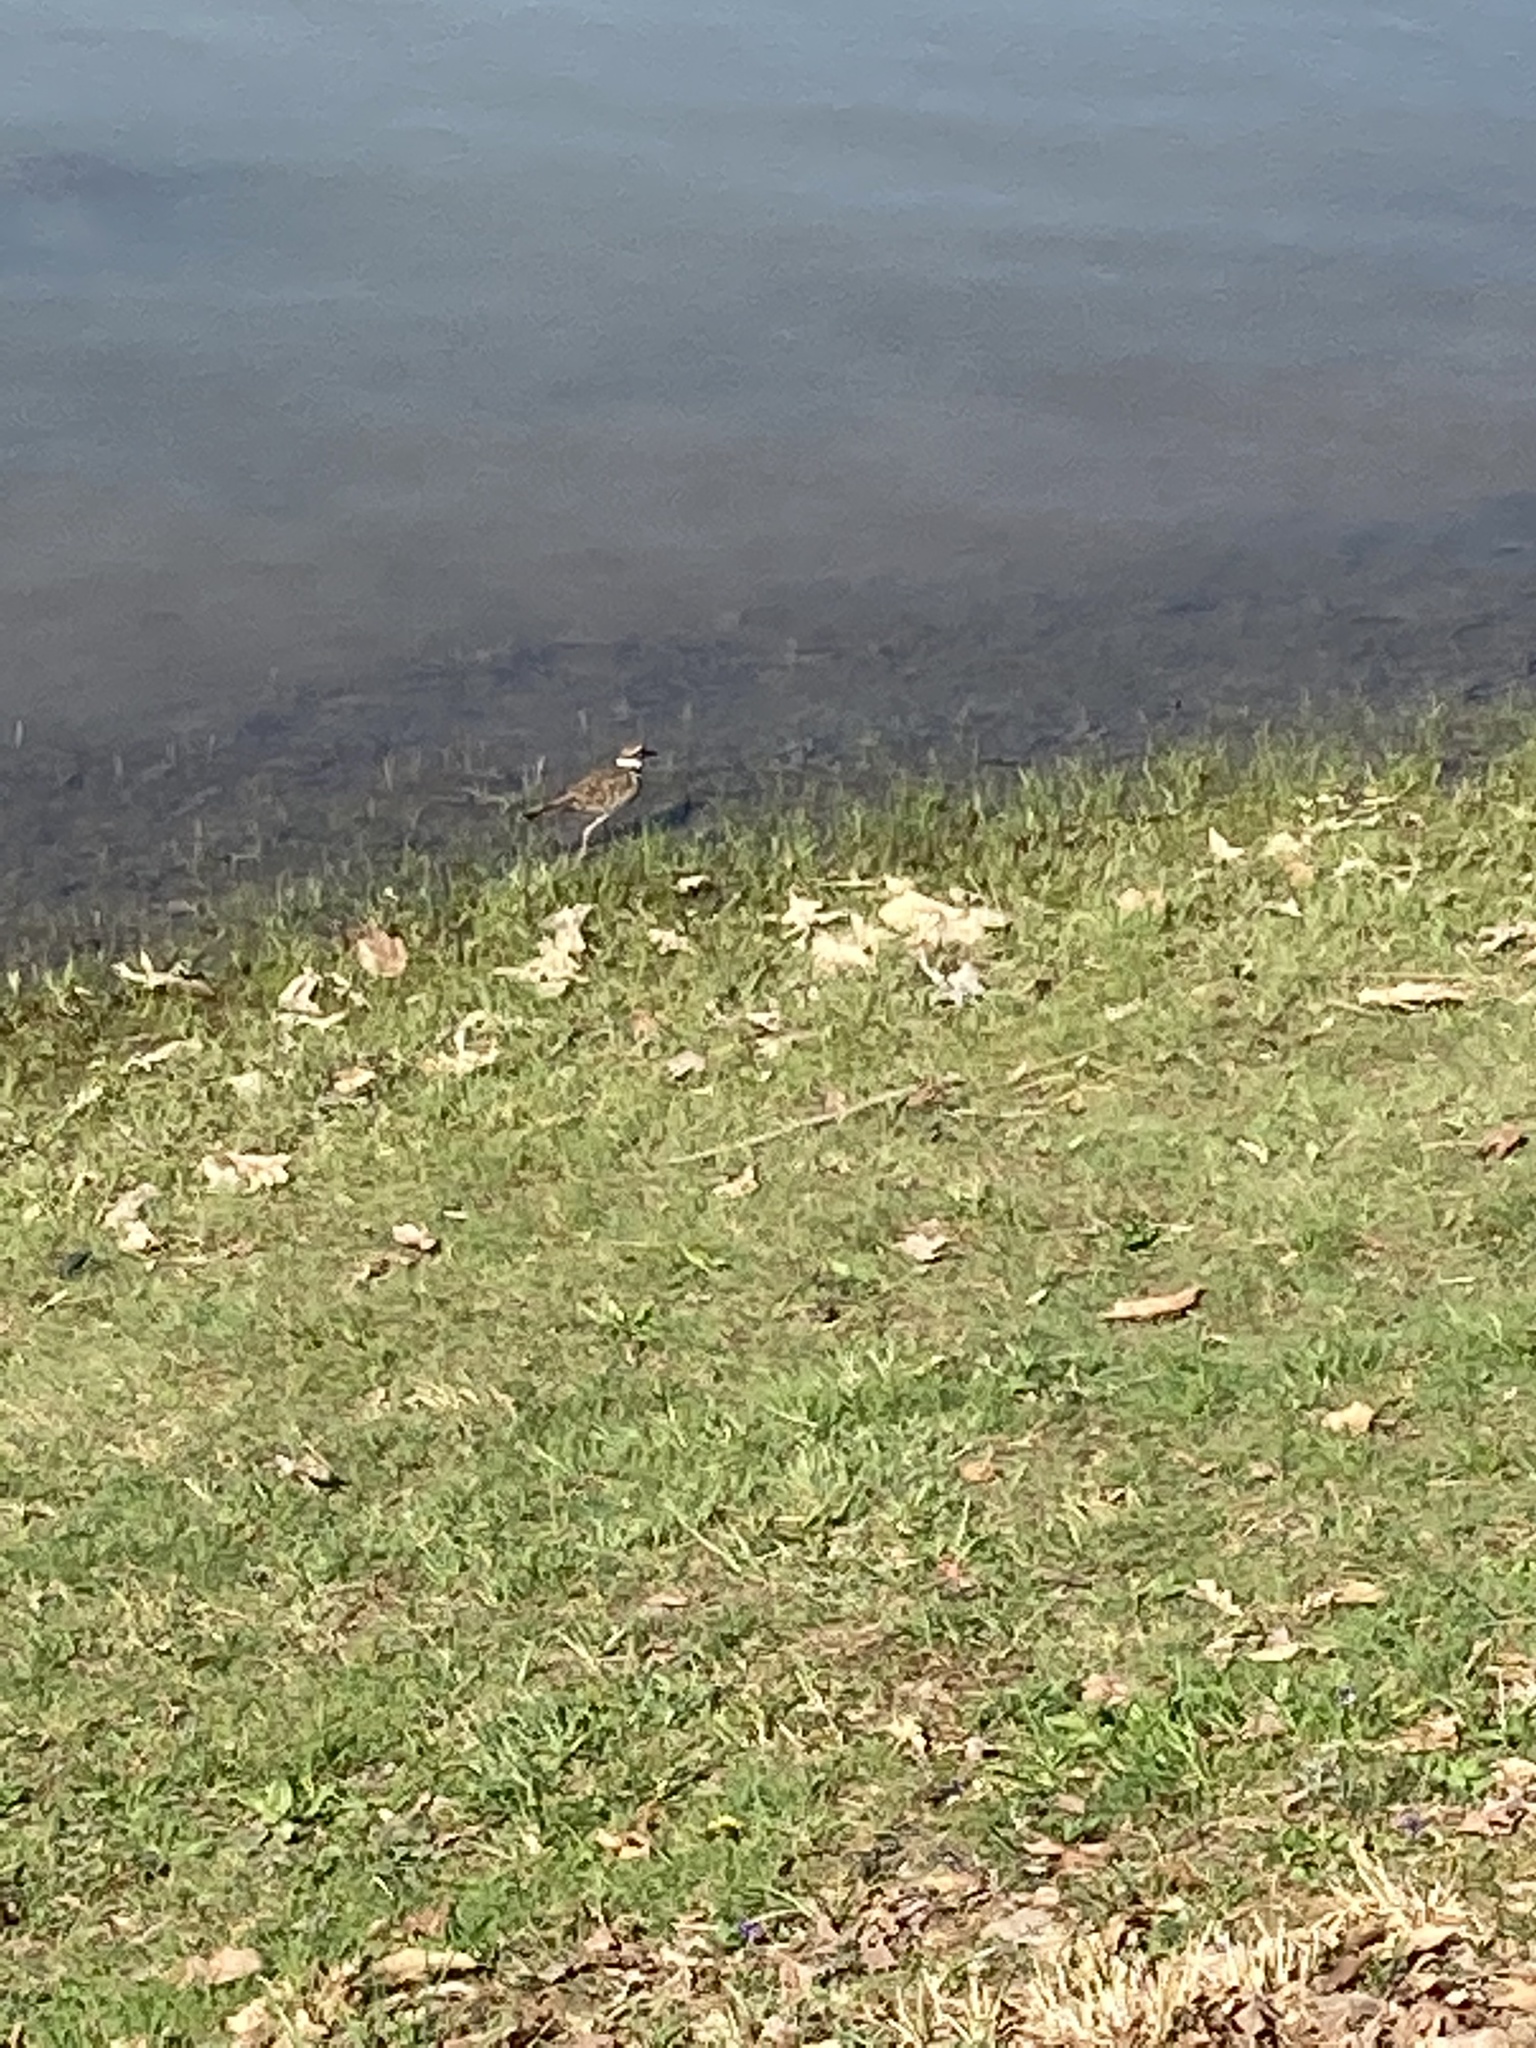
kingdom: Animalia
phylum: Chordata
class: Aves
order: Charadriiformes
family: Charadriidae
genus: Charadrius
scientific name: Charadrius vociferus
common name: Killdeer
